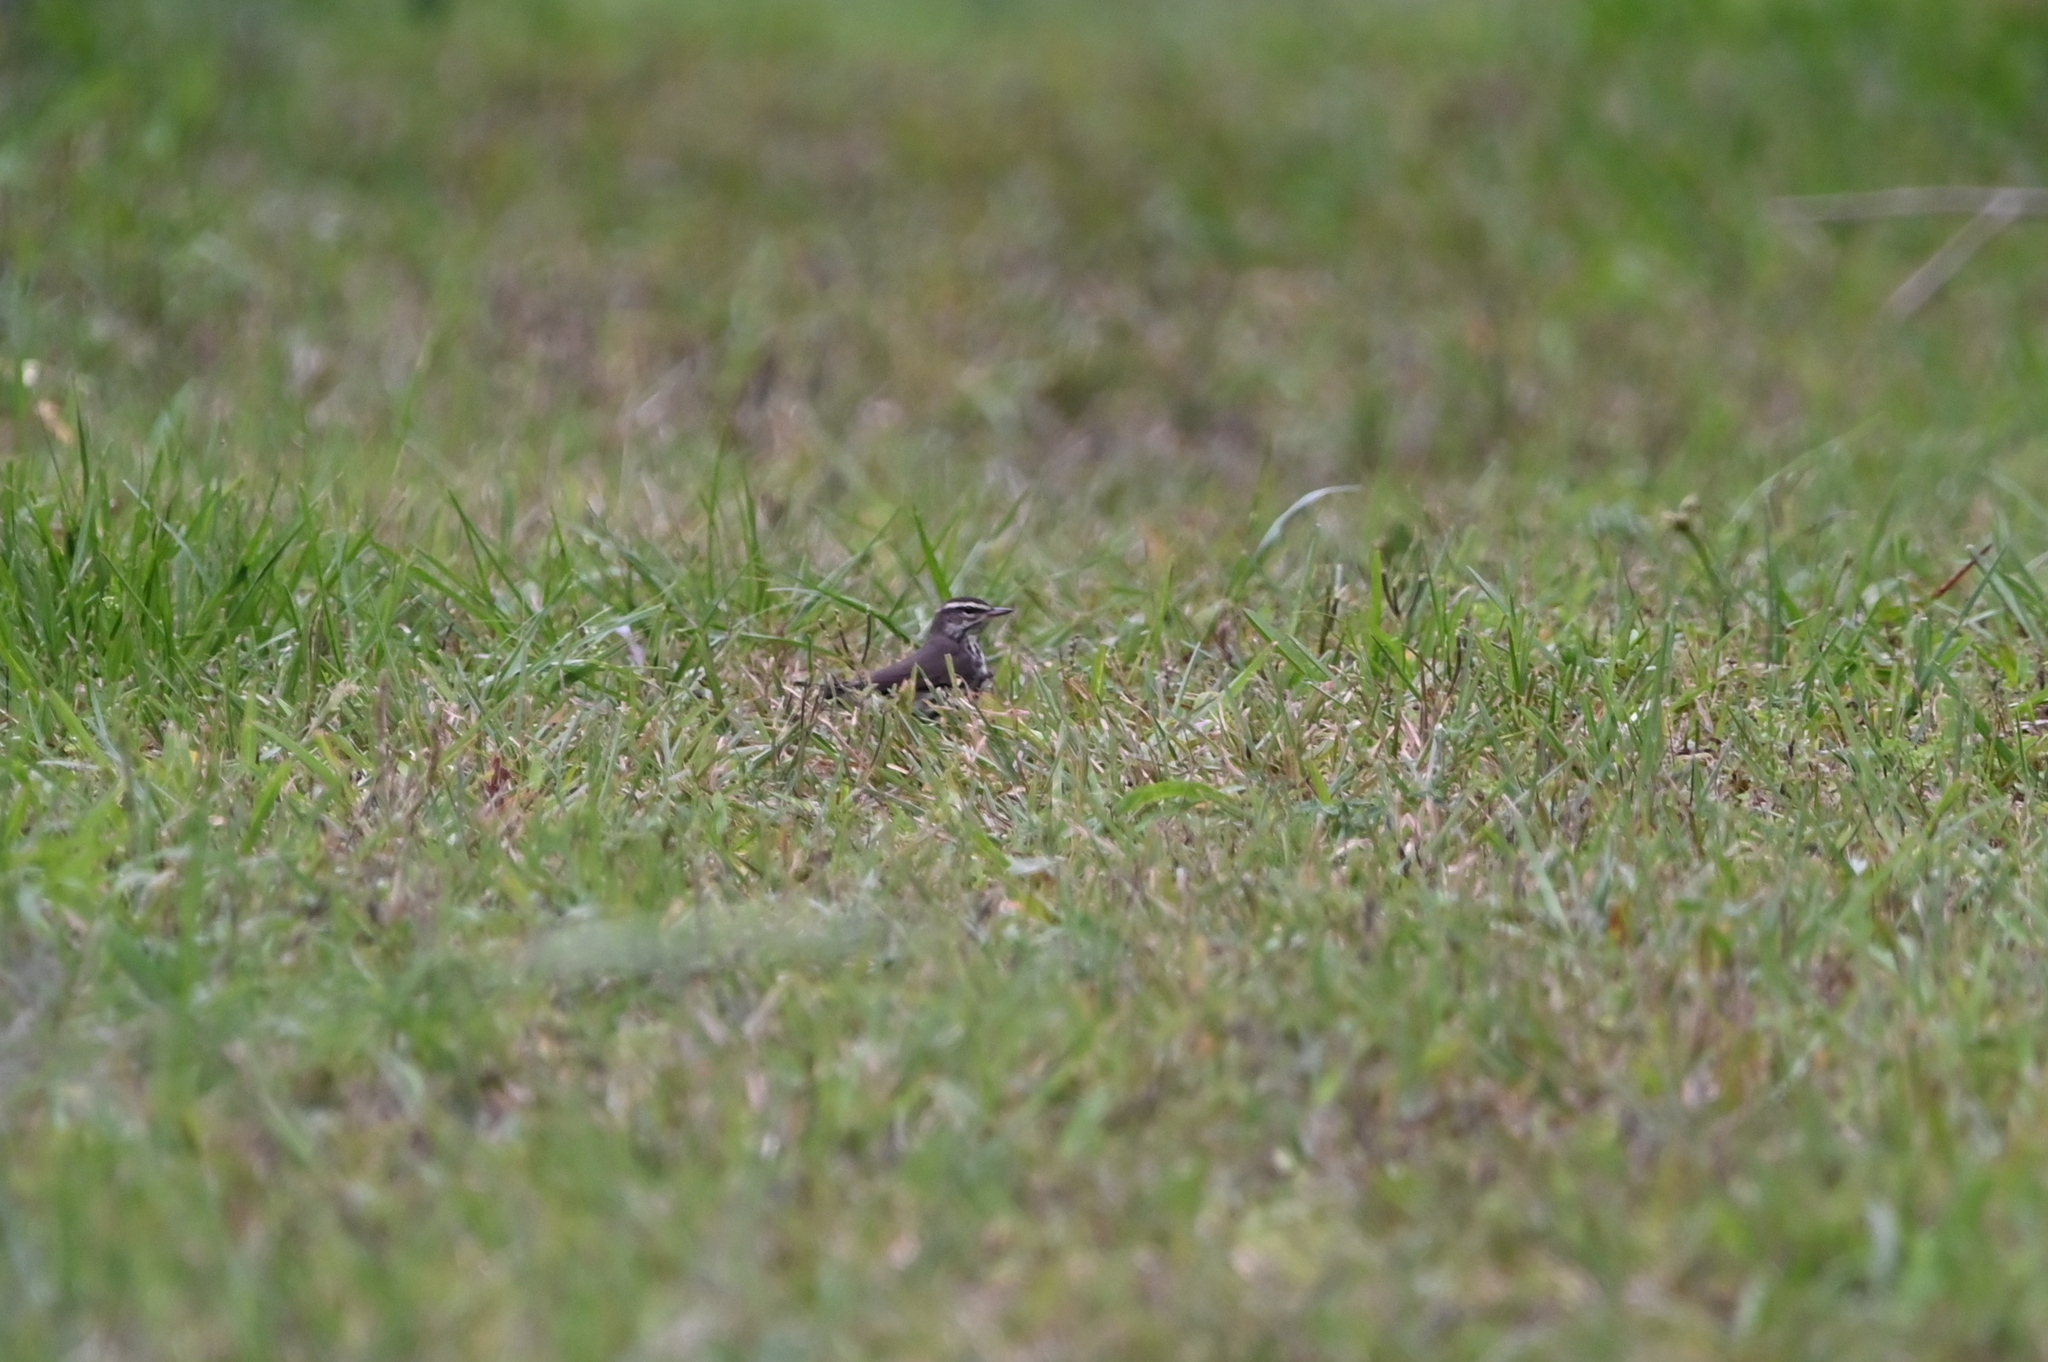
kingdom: Animalia
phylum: Chordata
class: Aves
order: Passeriformes
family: Parulidae
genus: Parkesia
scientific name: Parkesia noveboracensis
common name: Northern waterthrush
